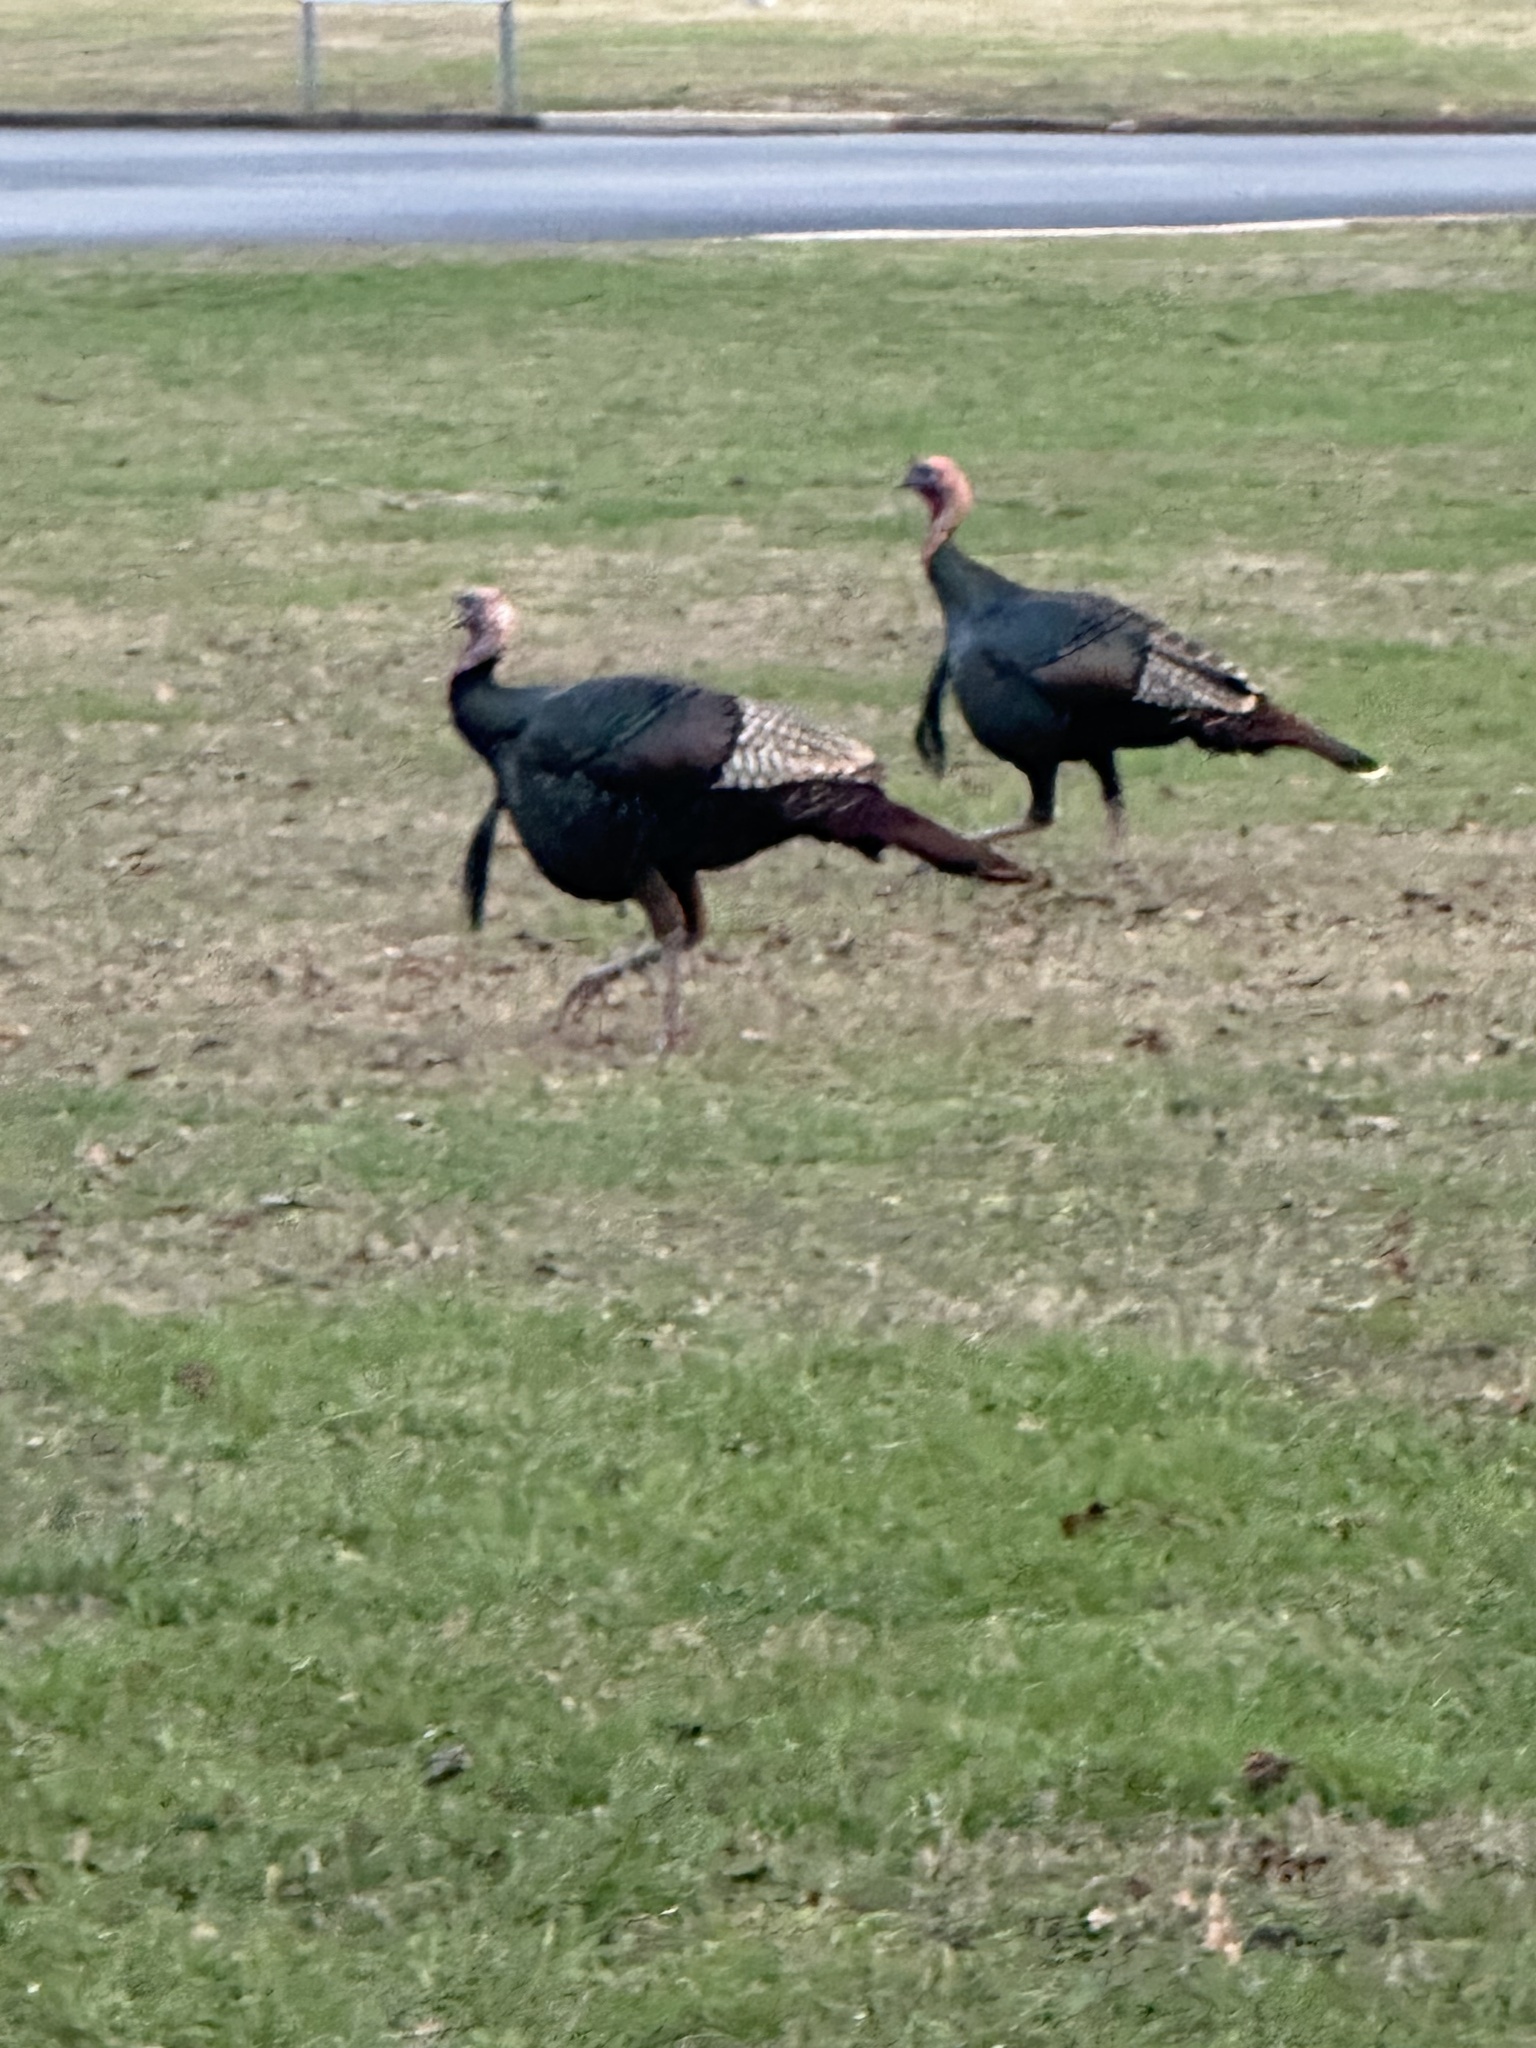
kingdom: Animalia
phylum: Chordata
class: Aves
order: Galliformes
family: Phasianidae
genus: Meleagris
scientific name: Meleagris gallopavo
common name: Wild turkey
